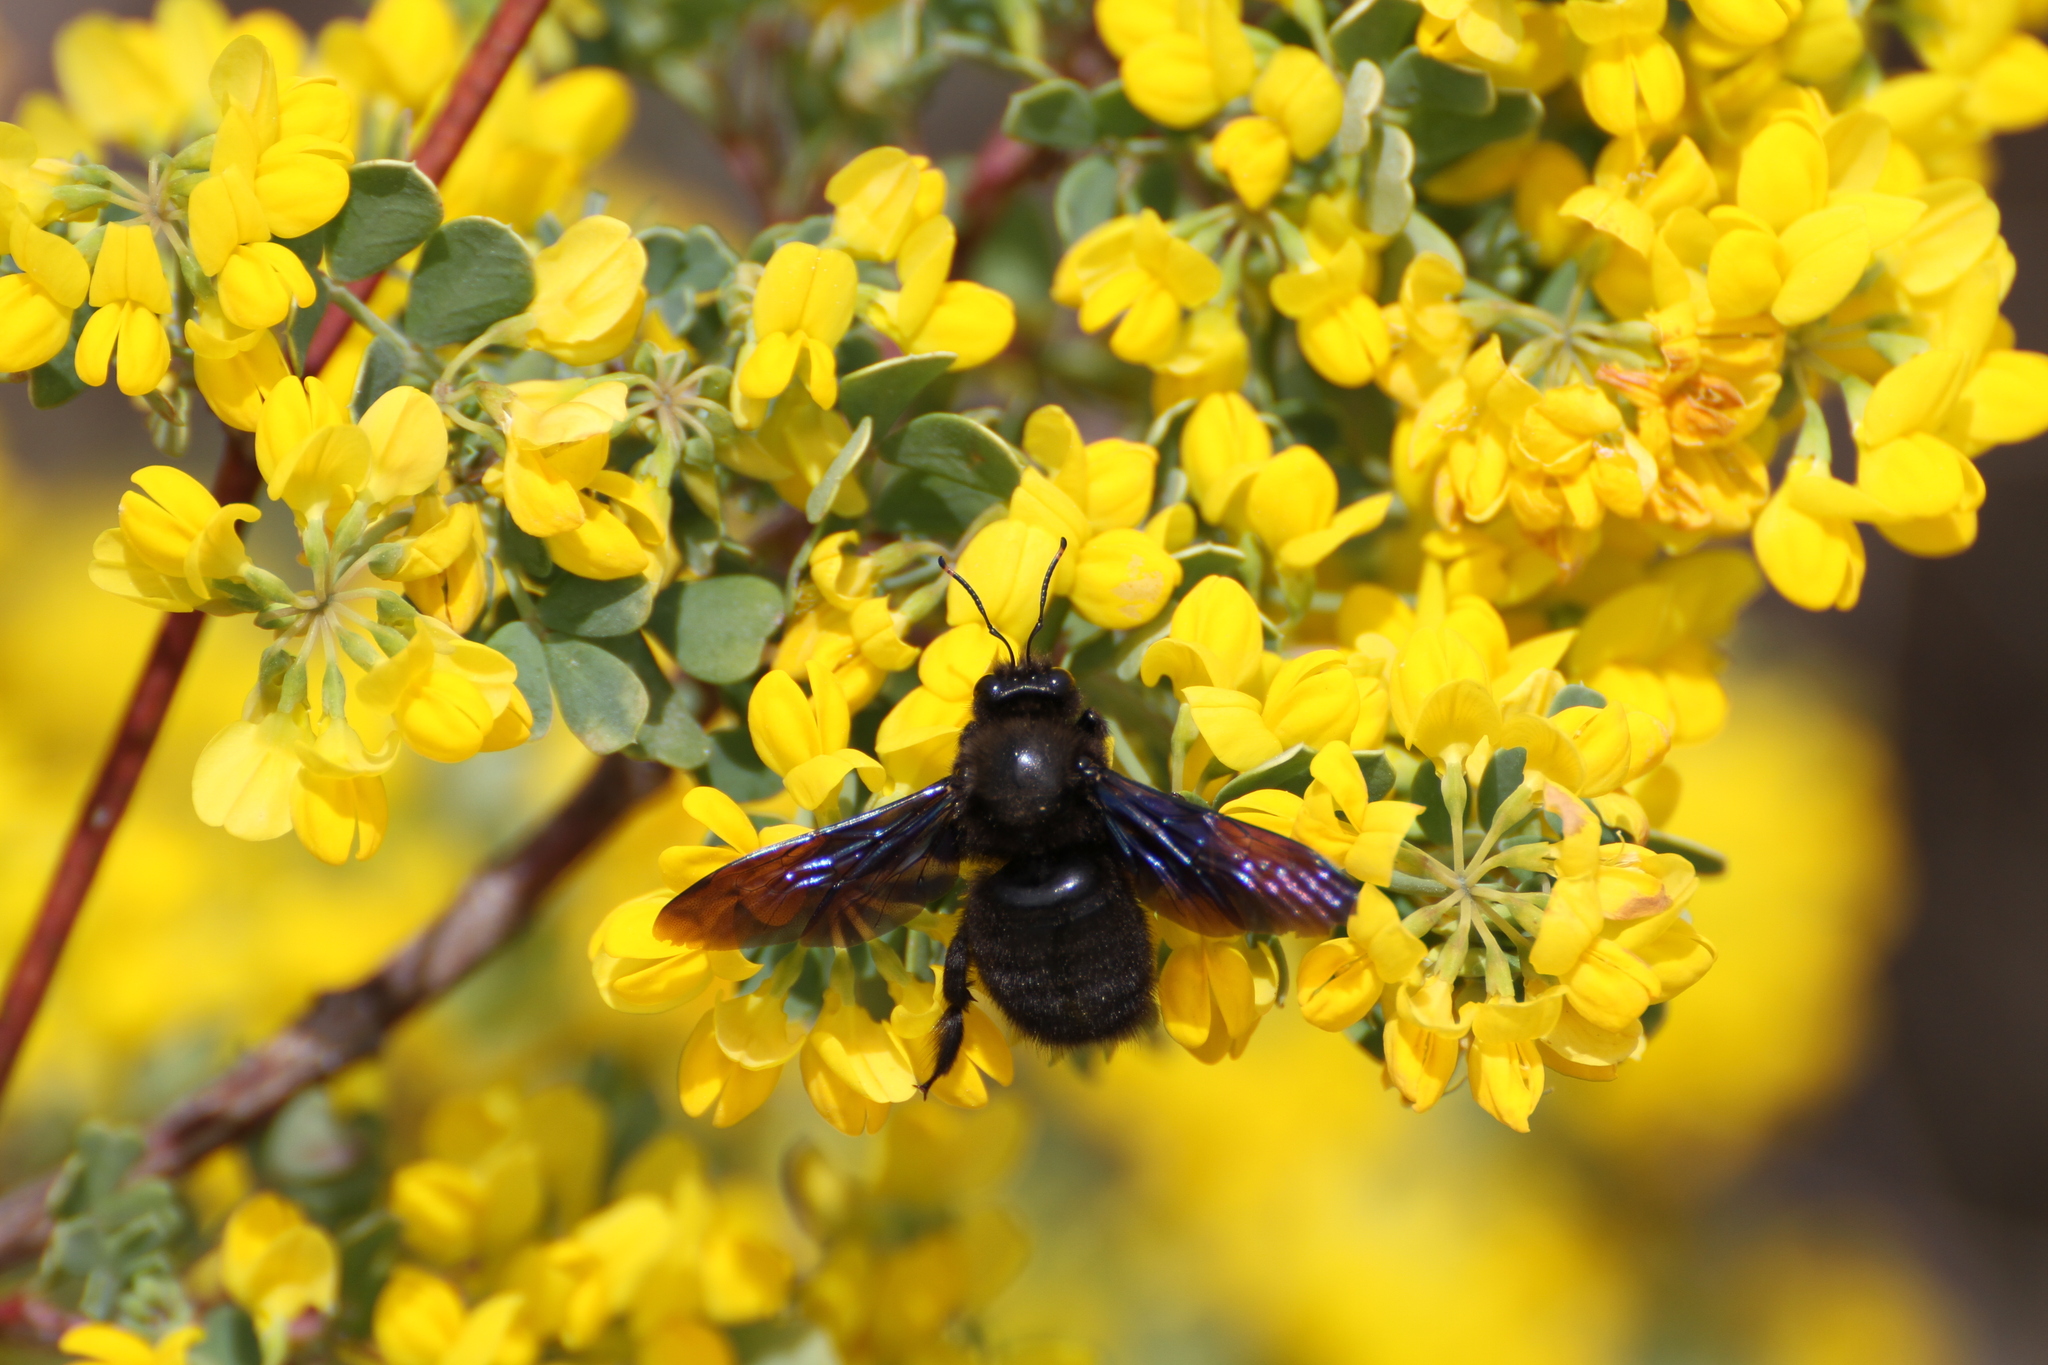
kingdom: Animalia
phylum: Arthropoda
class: Insecta
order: Hymenoptera
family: Apidae
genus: Xylocopa
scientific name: Xylocopa violacea
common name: Violet carpenter bee
